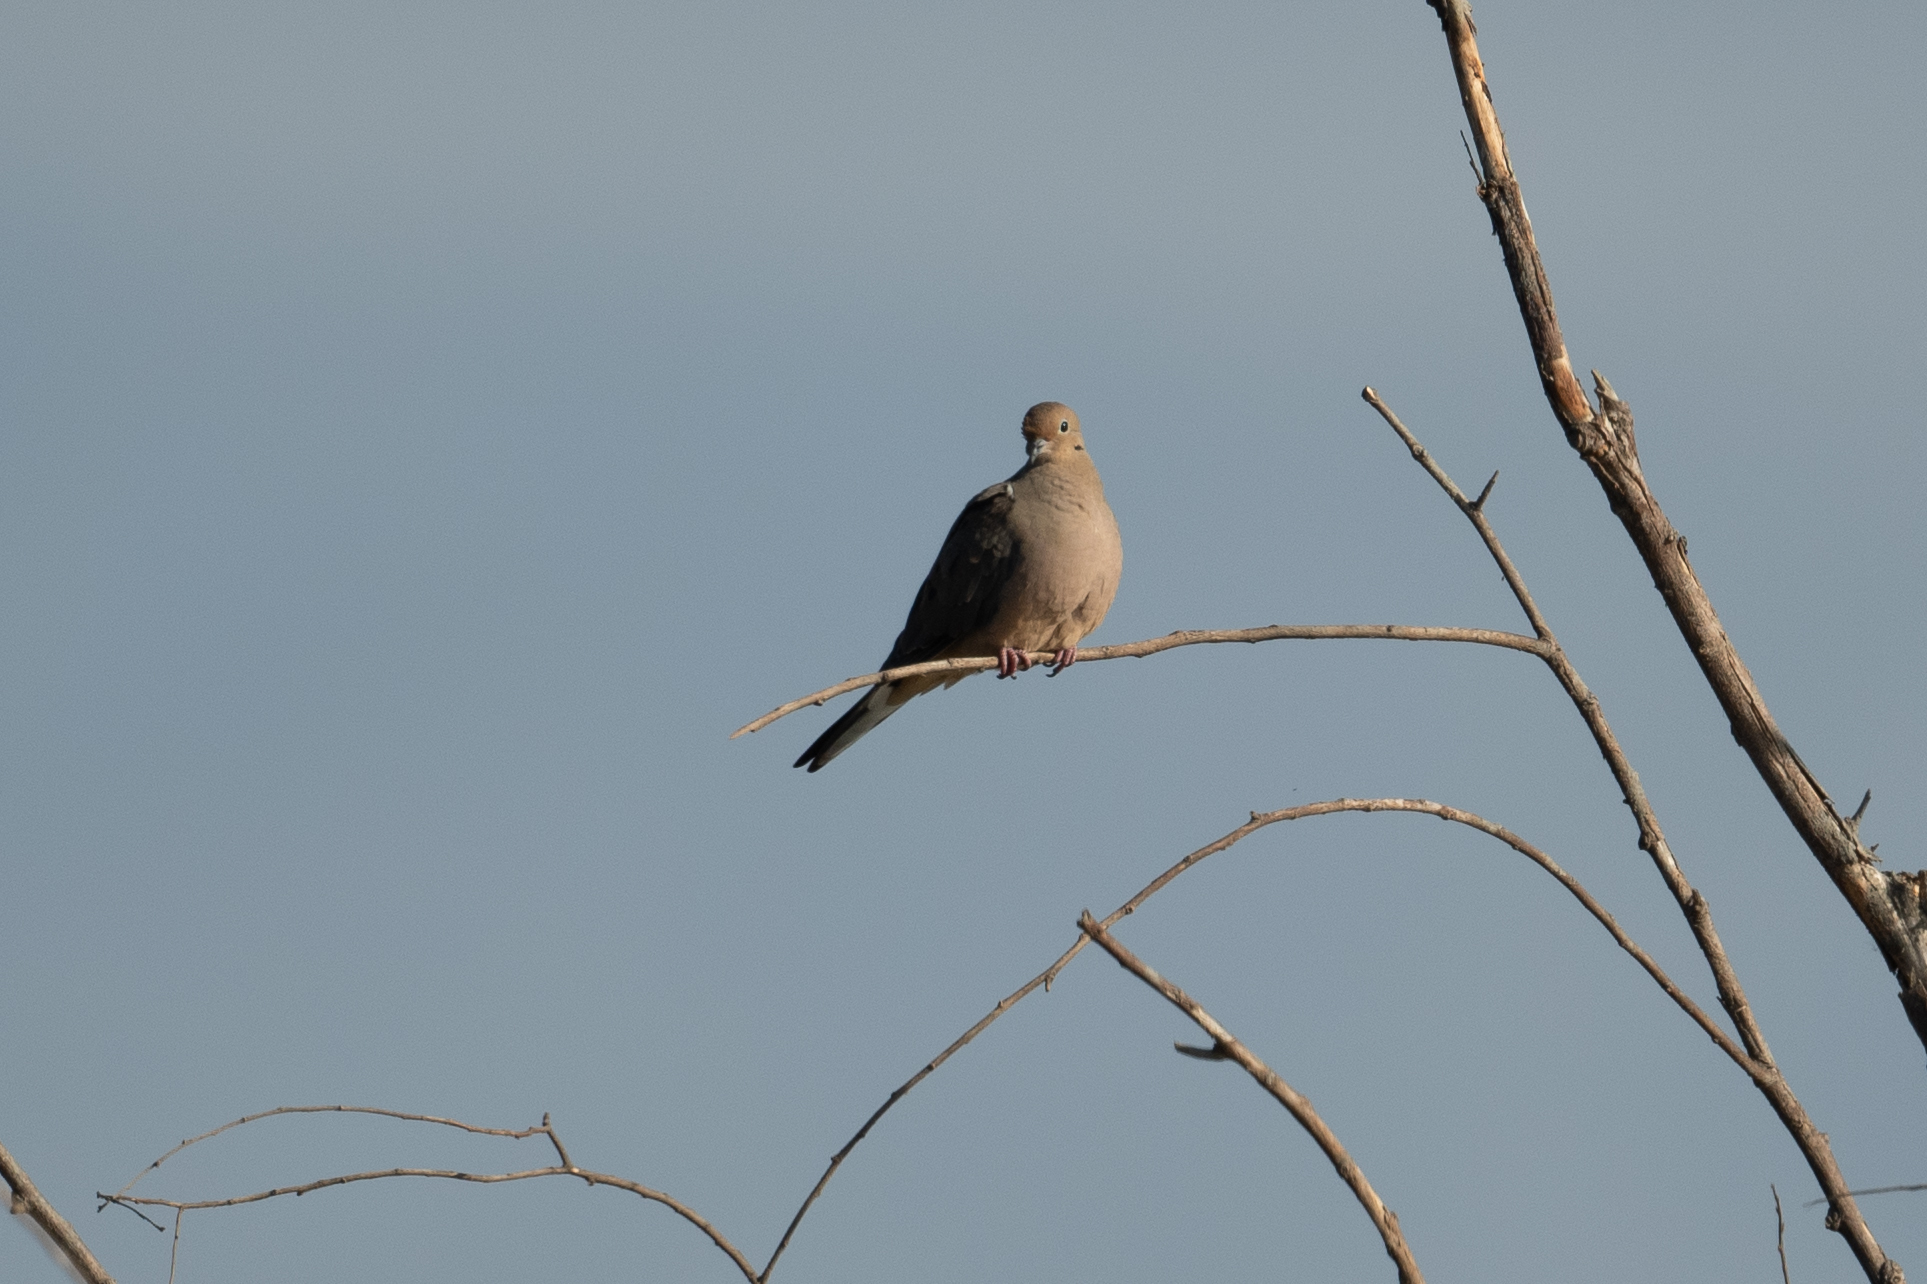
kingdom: Animalia
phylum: Chordata
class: Aves
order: Columbiformes
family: Columbidae
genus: Zenaida
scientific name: Zenaida macroura
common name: Mourning dove
